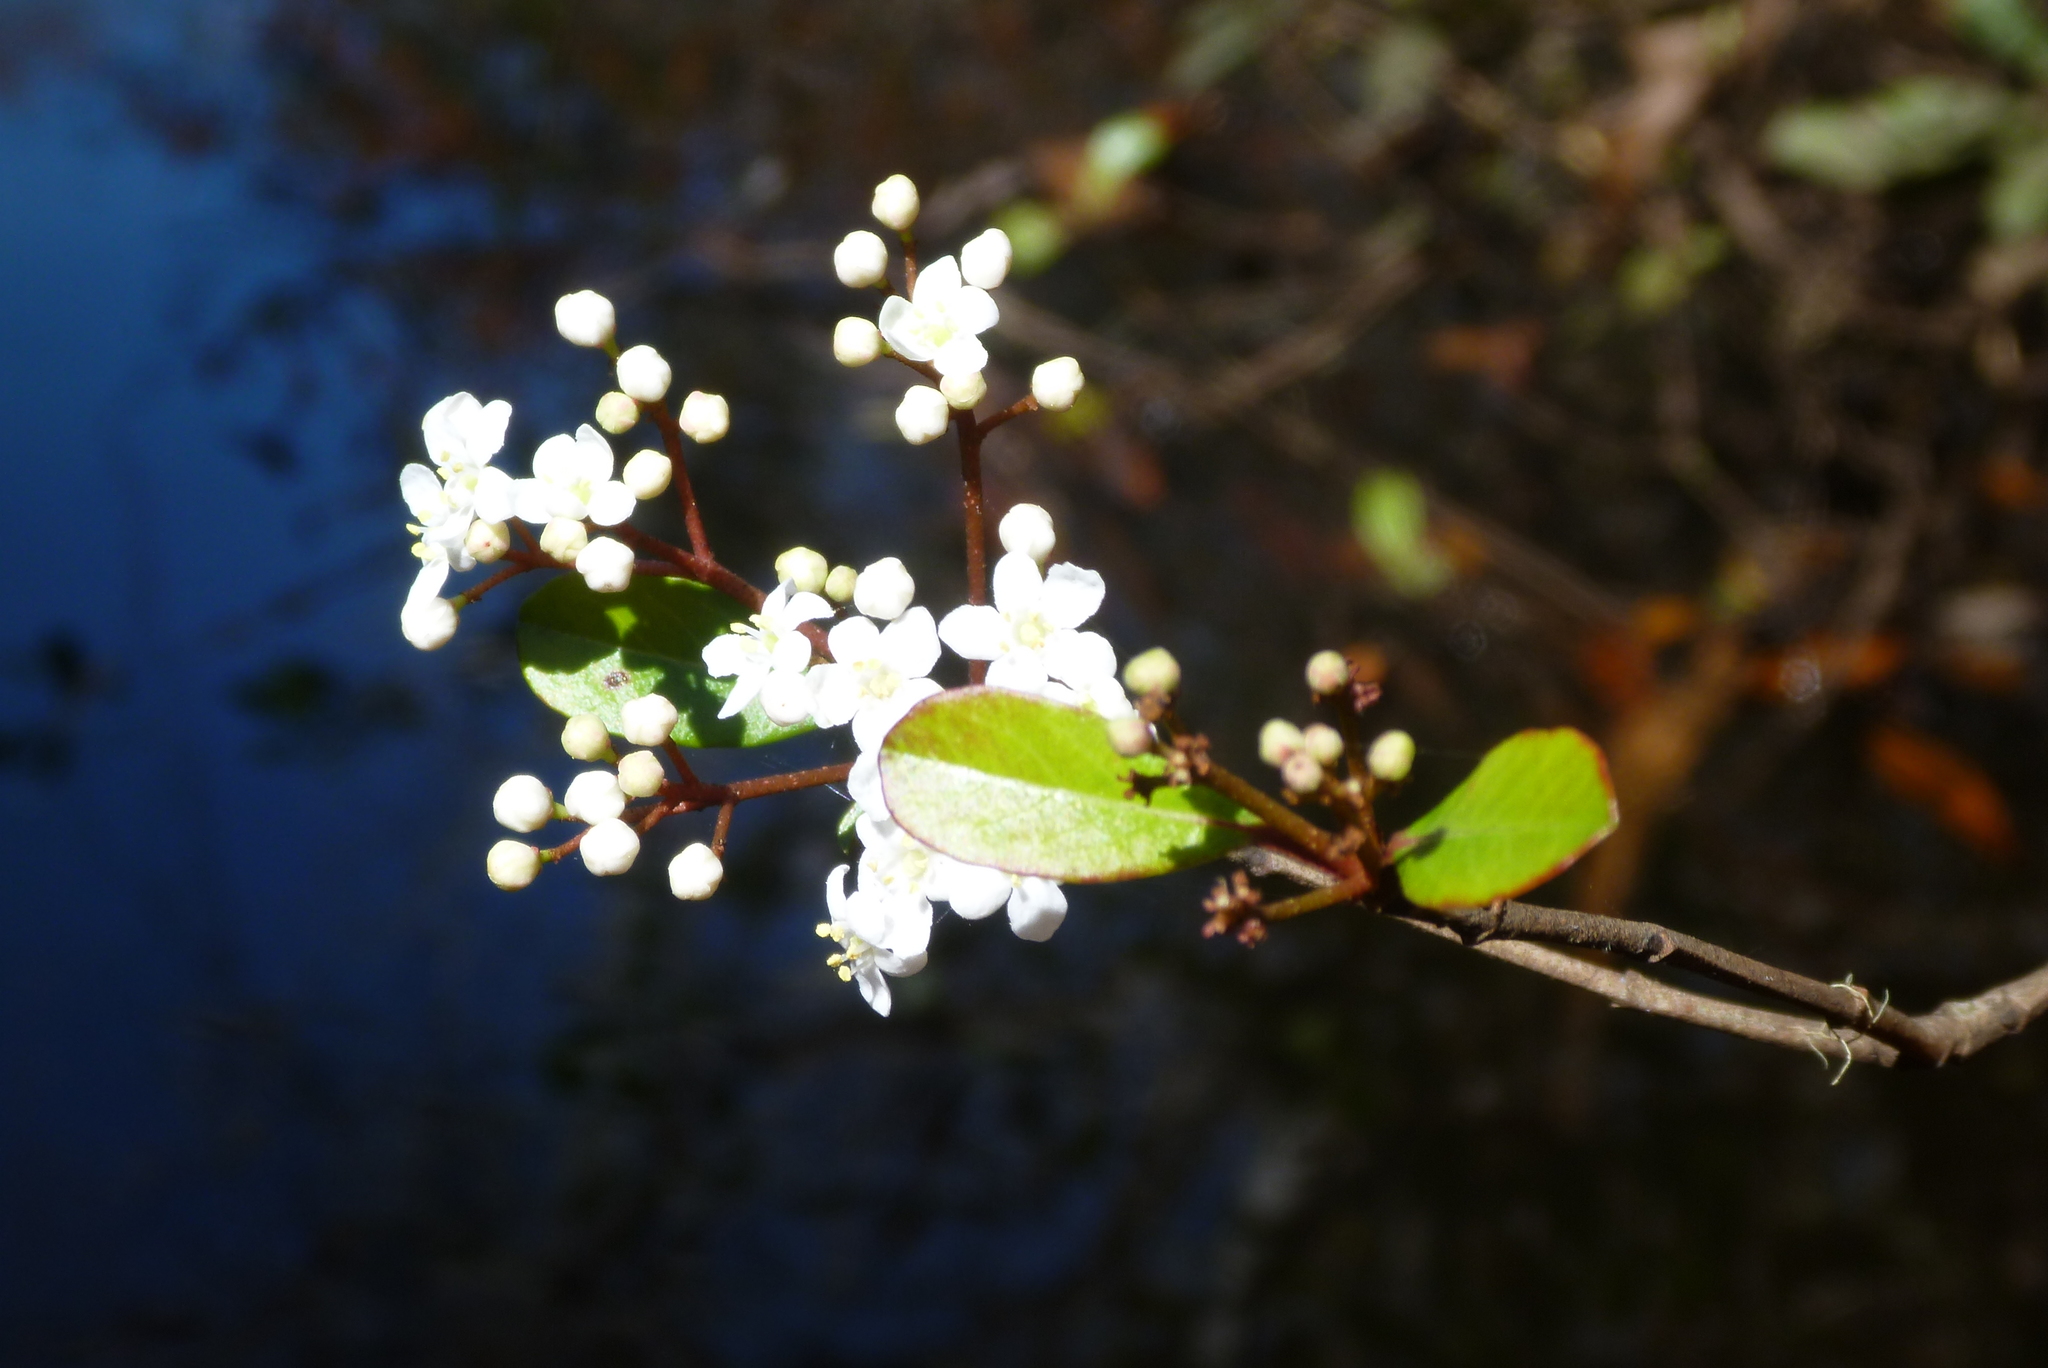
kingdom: Plantae
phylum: Tracheophyta
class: Magnoliopsida
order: Dipsacales
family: Viburnaceae
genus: Viburnum
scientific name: Viburnum obovatum
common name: Walter's viburnum
